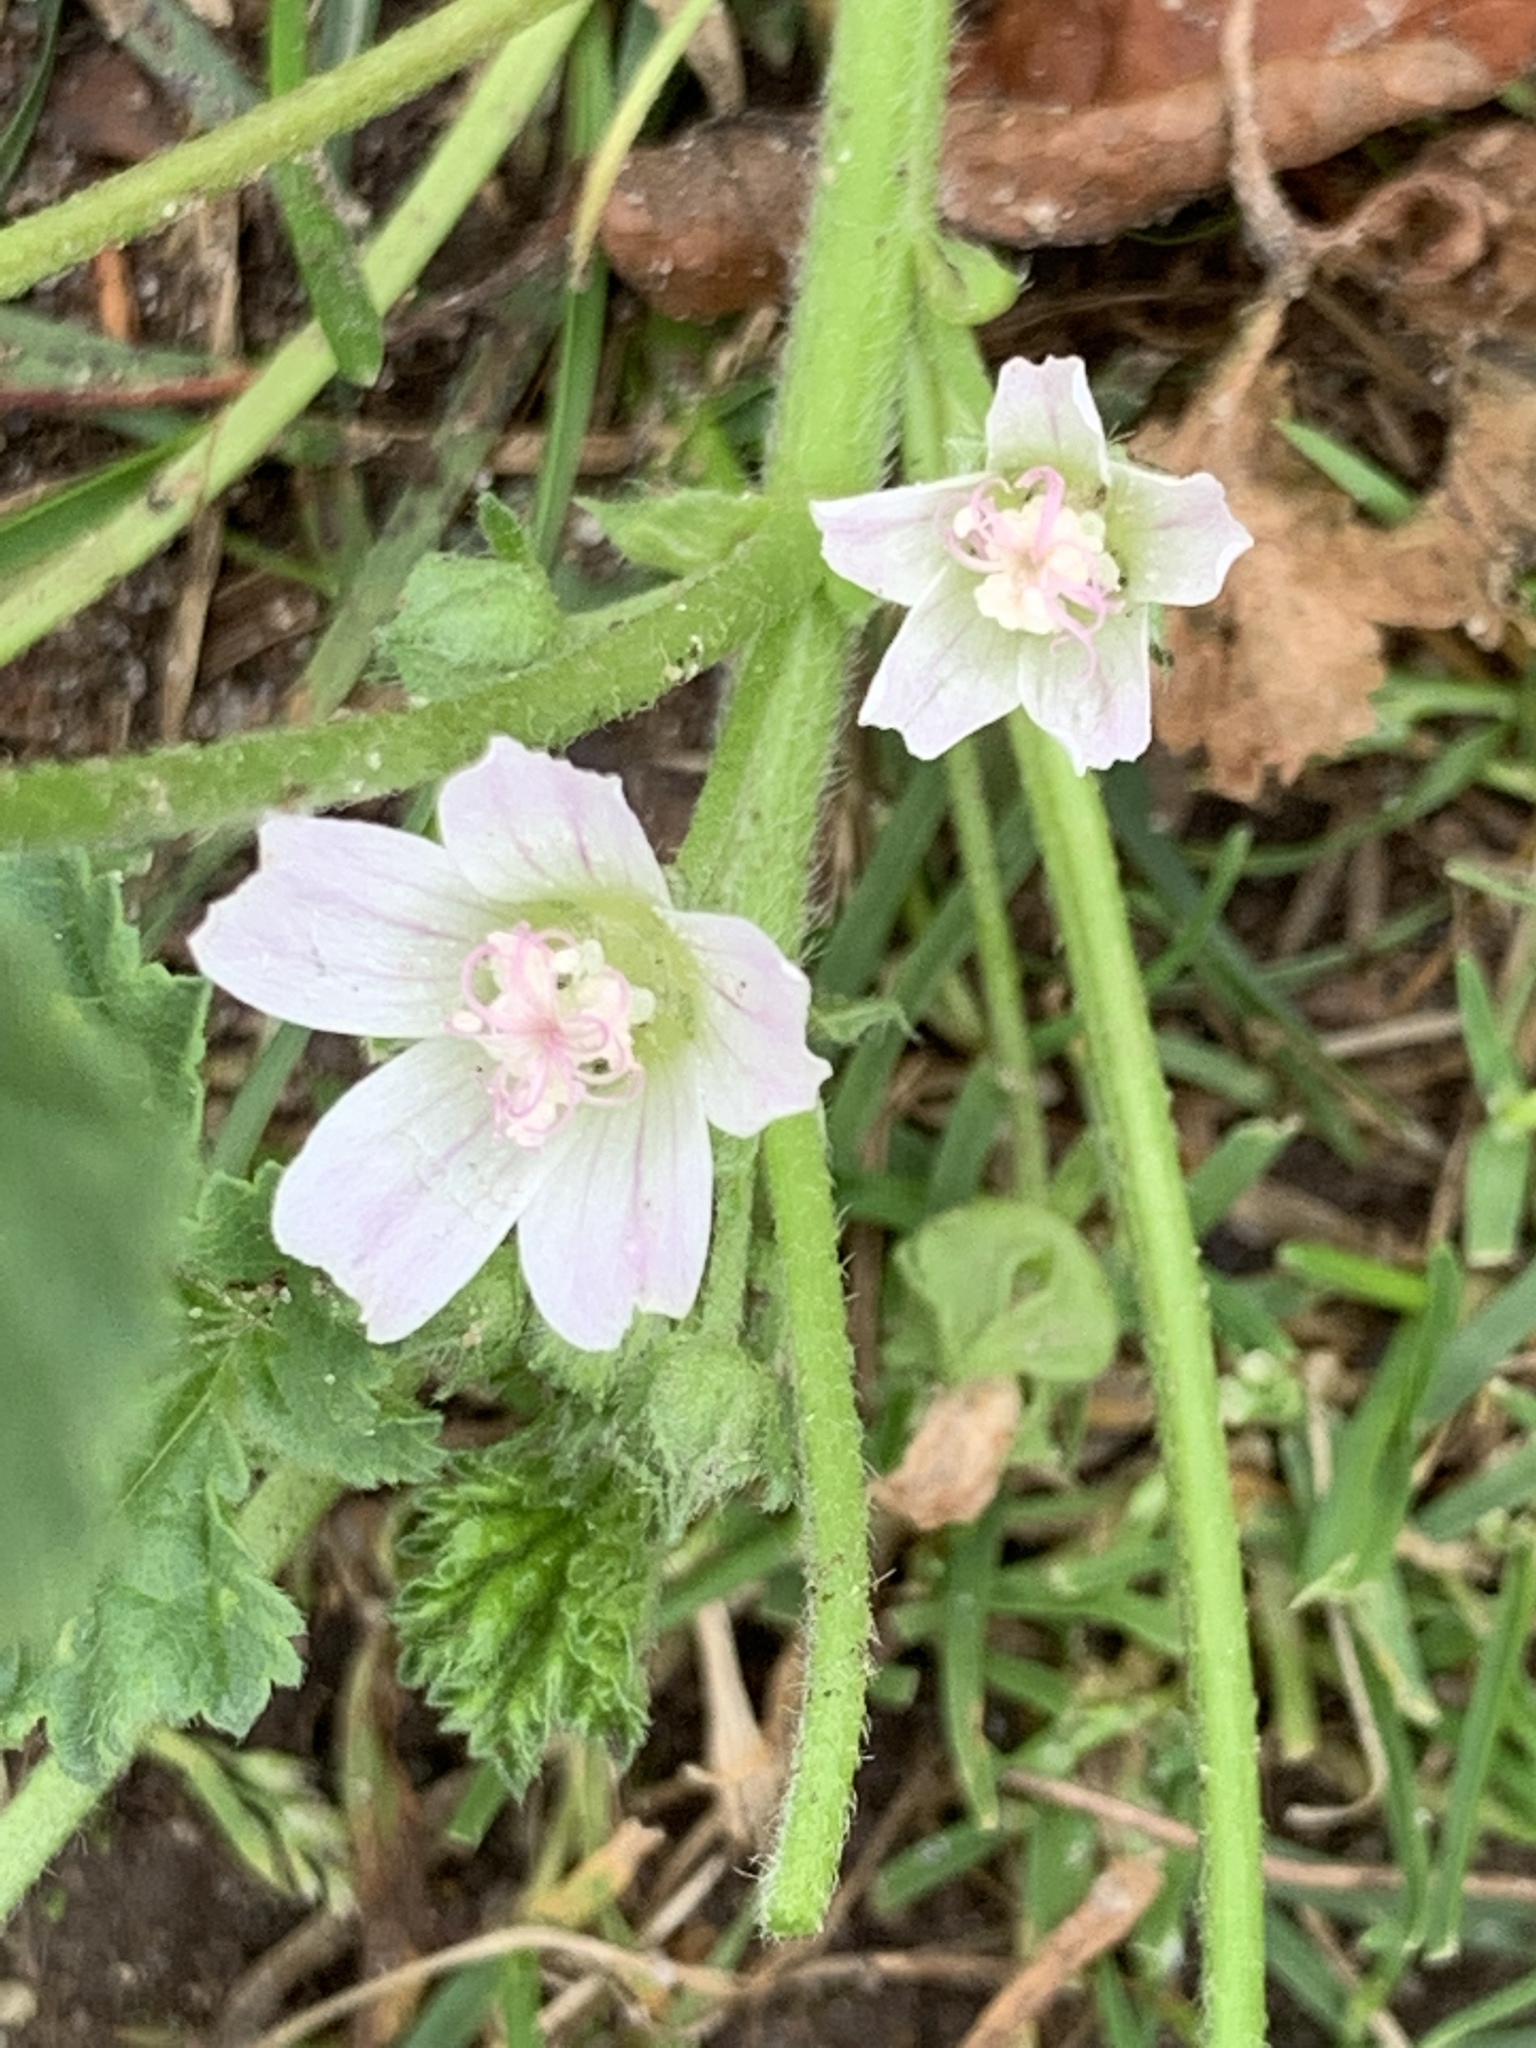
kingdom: Plantae
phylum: Tracheophyta
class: Magnoliopsida
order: Malvales
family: Malvaceae
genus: Malva
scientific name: Malva neglecta
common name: Common mallow
